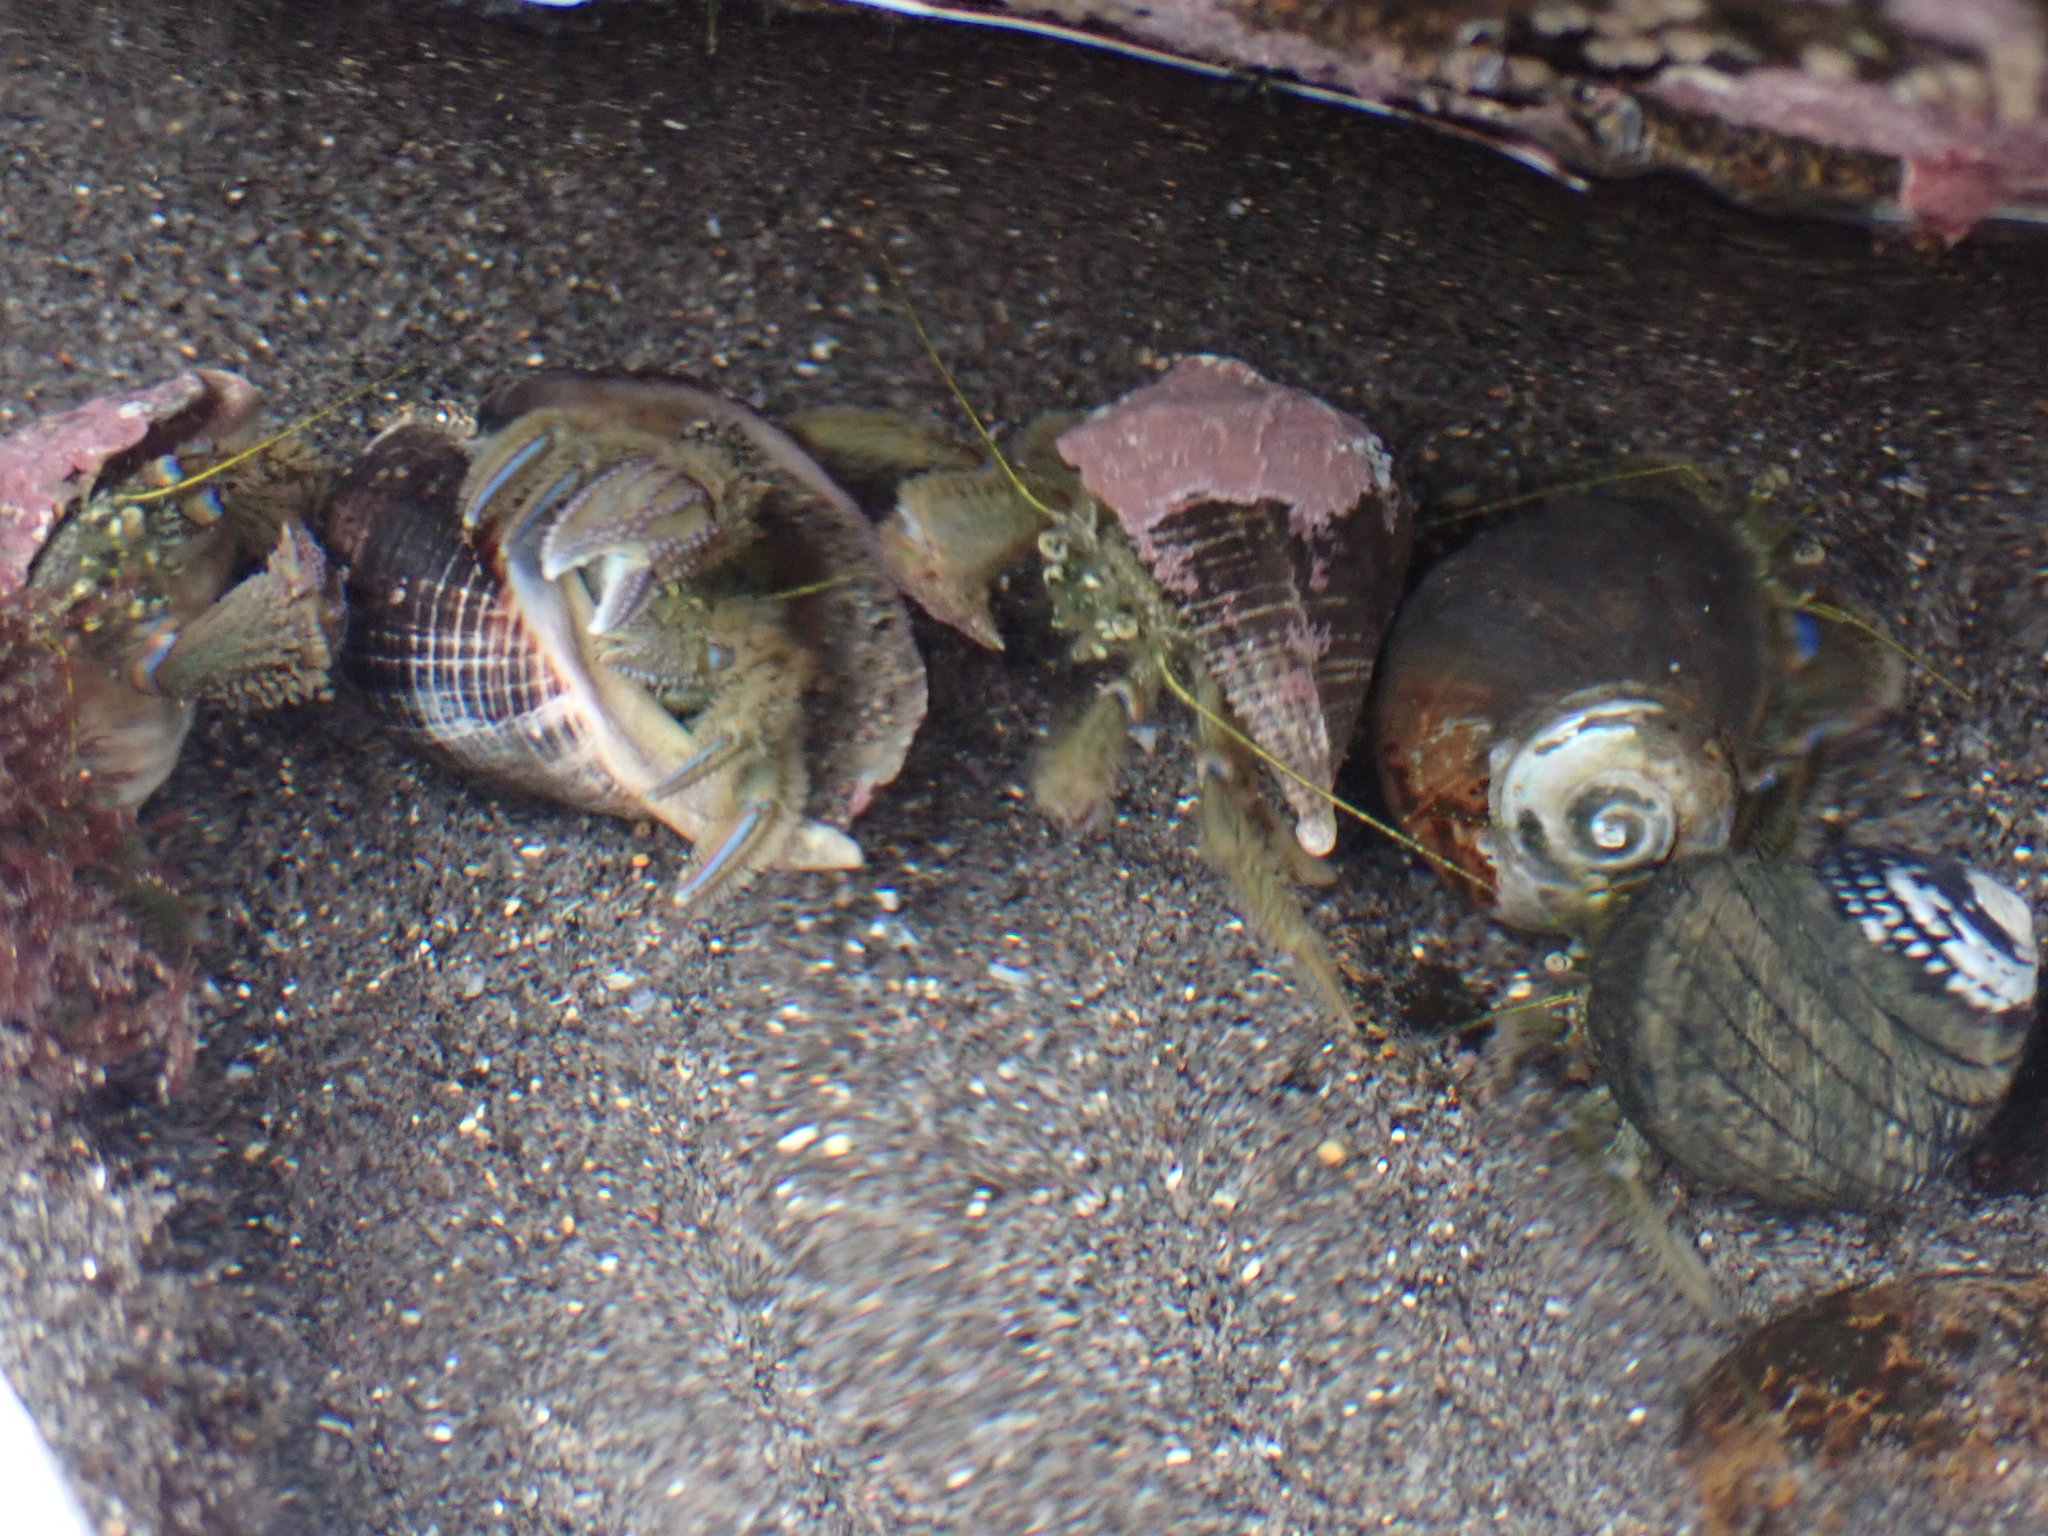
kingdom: Animalia
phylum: Arthropoda
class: Malacostraca
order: Decapoda
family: Paguridae
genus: Pagurus
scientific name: Pagurus novizealandiae
